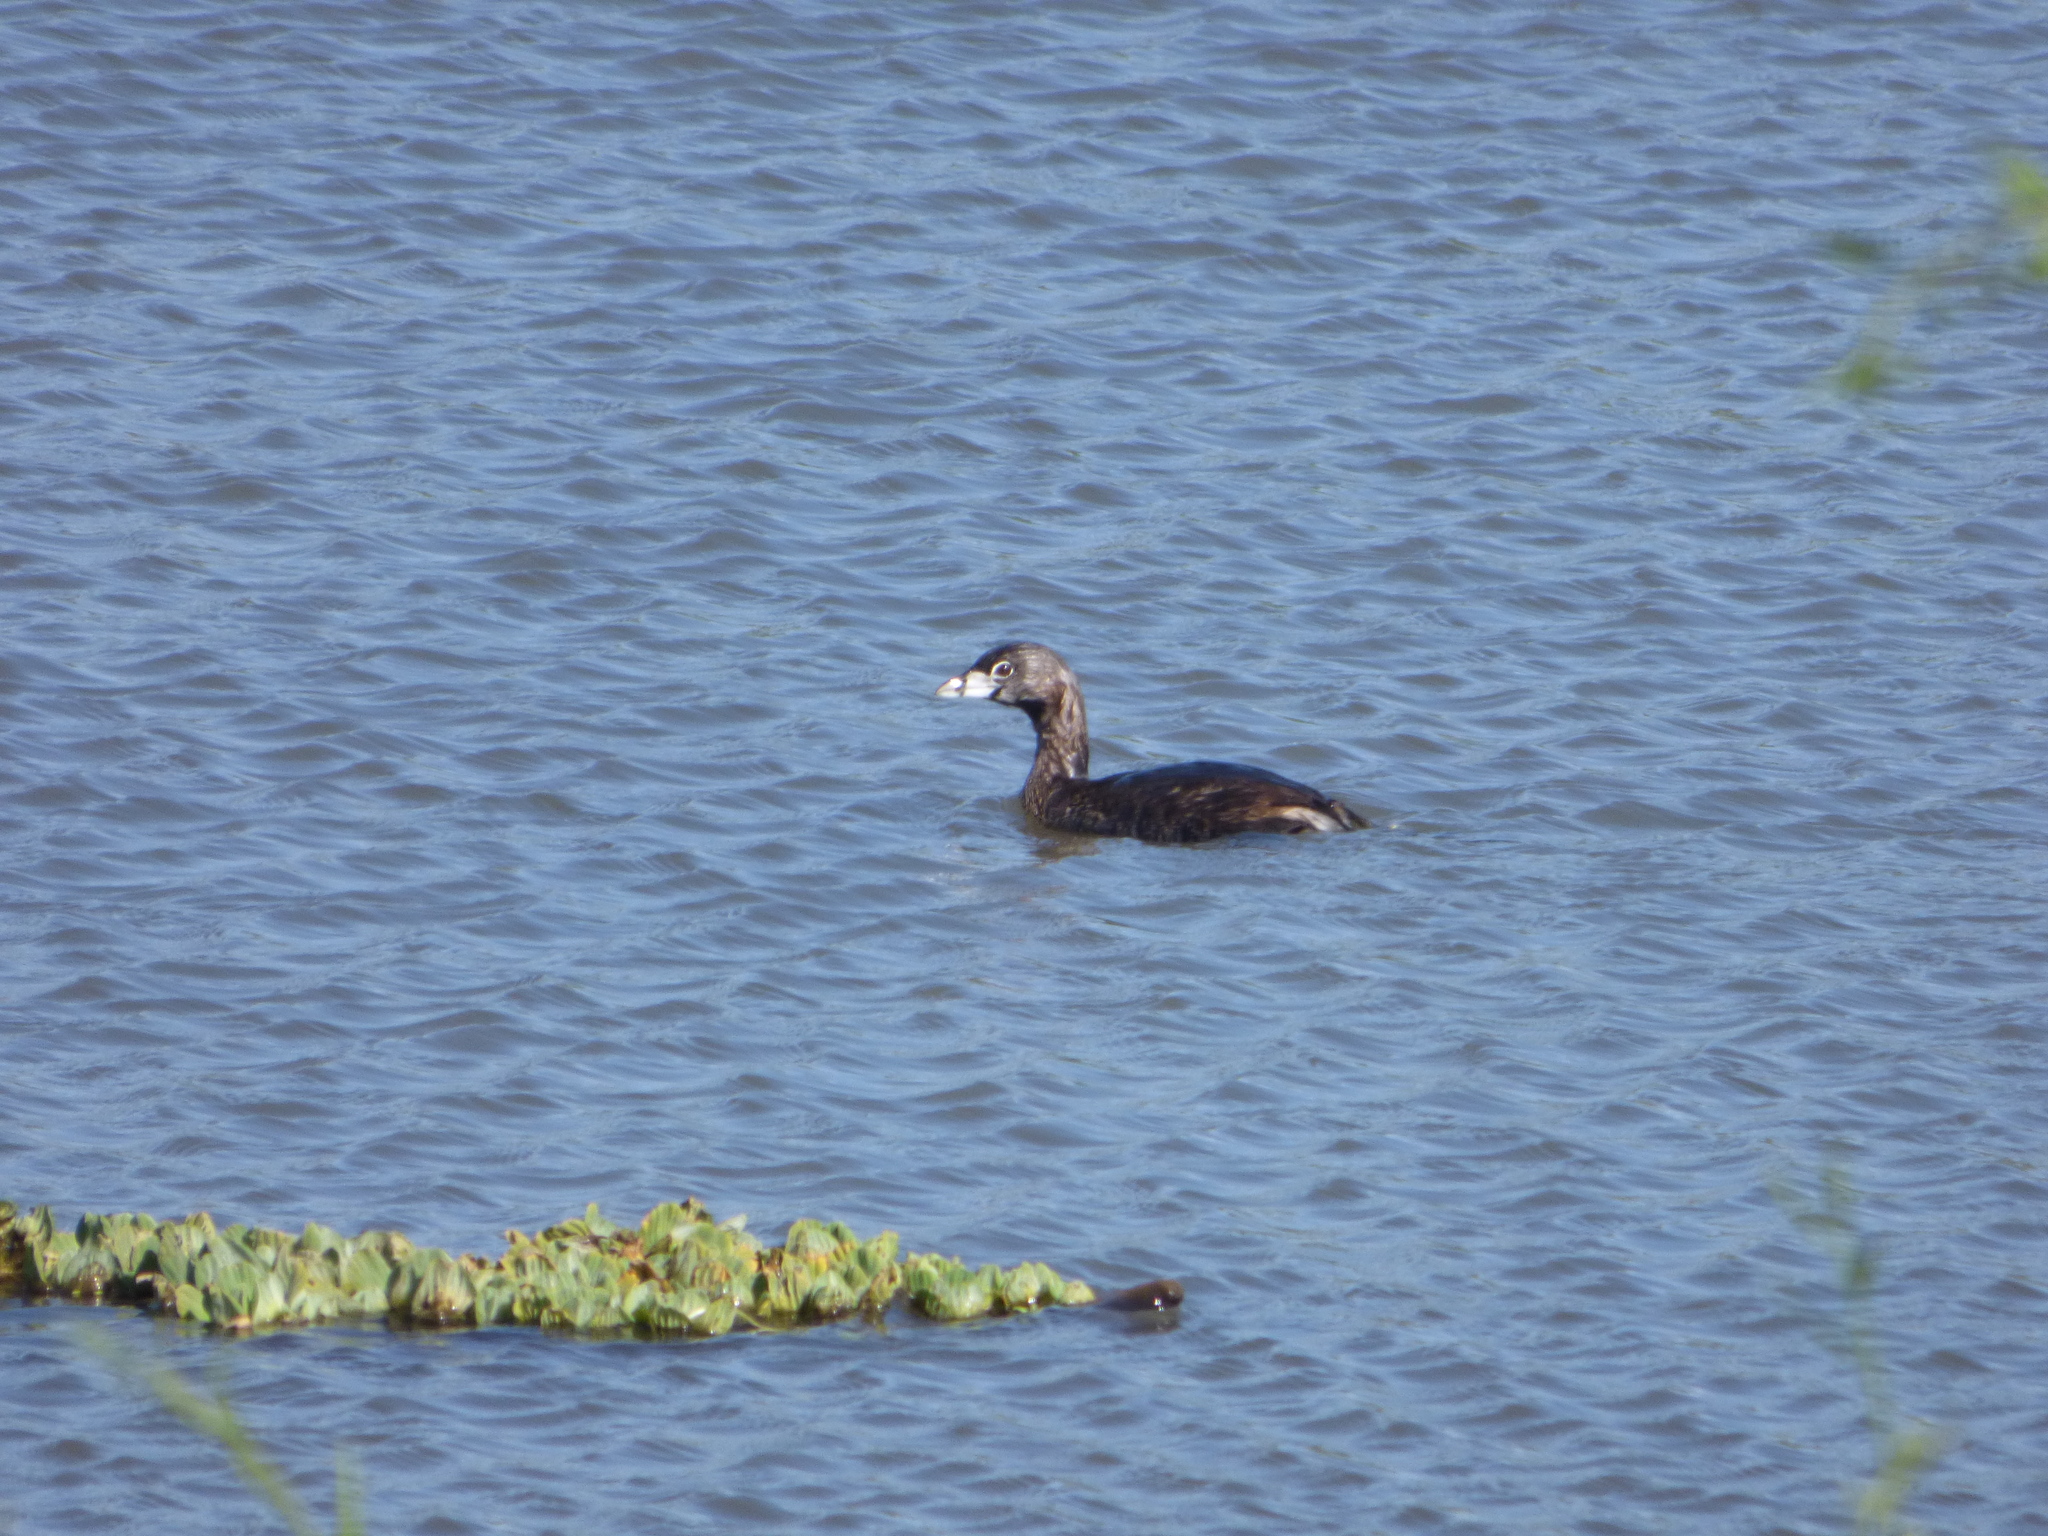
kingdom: Animalia
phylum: Chordata
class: Aves
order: Podicipediformes
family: Podicipedidae
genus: Podilymbus
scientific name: Podilymbus podiceps
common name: Pied-billed grebe
